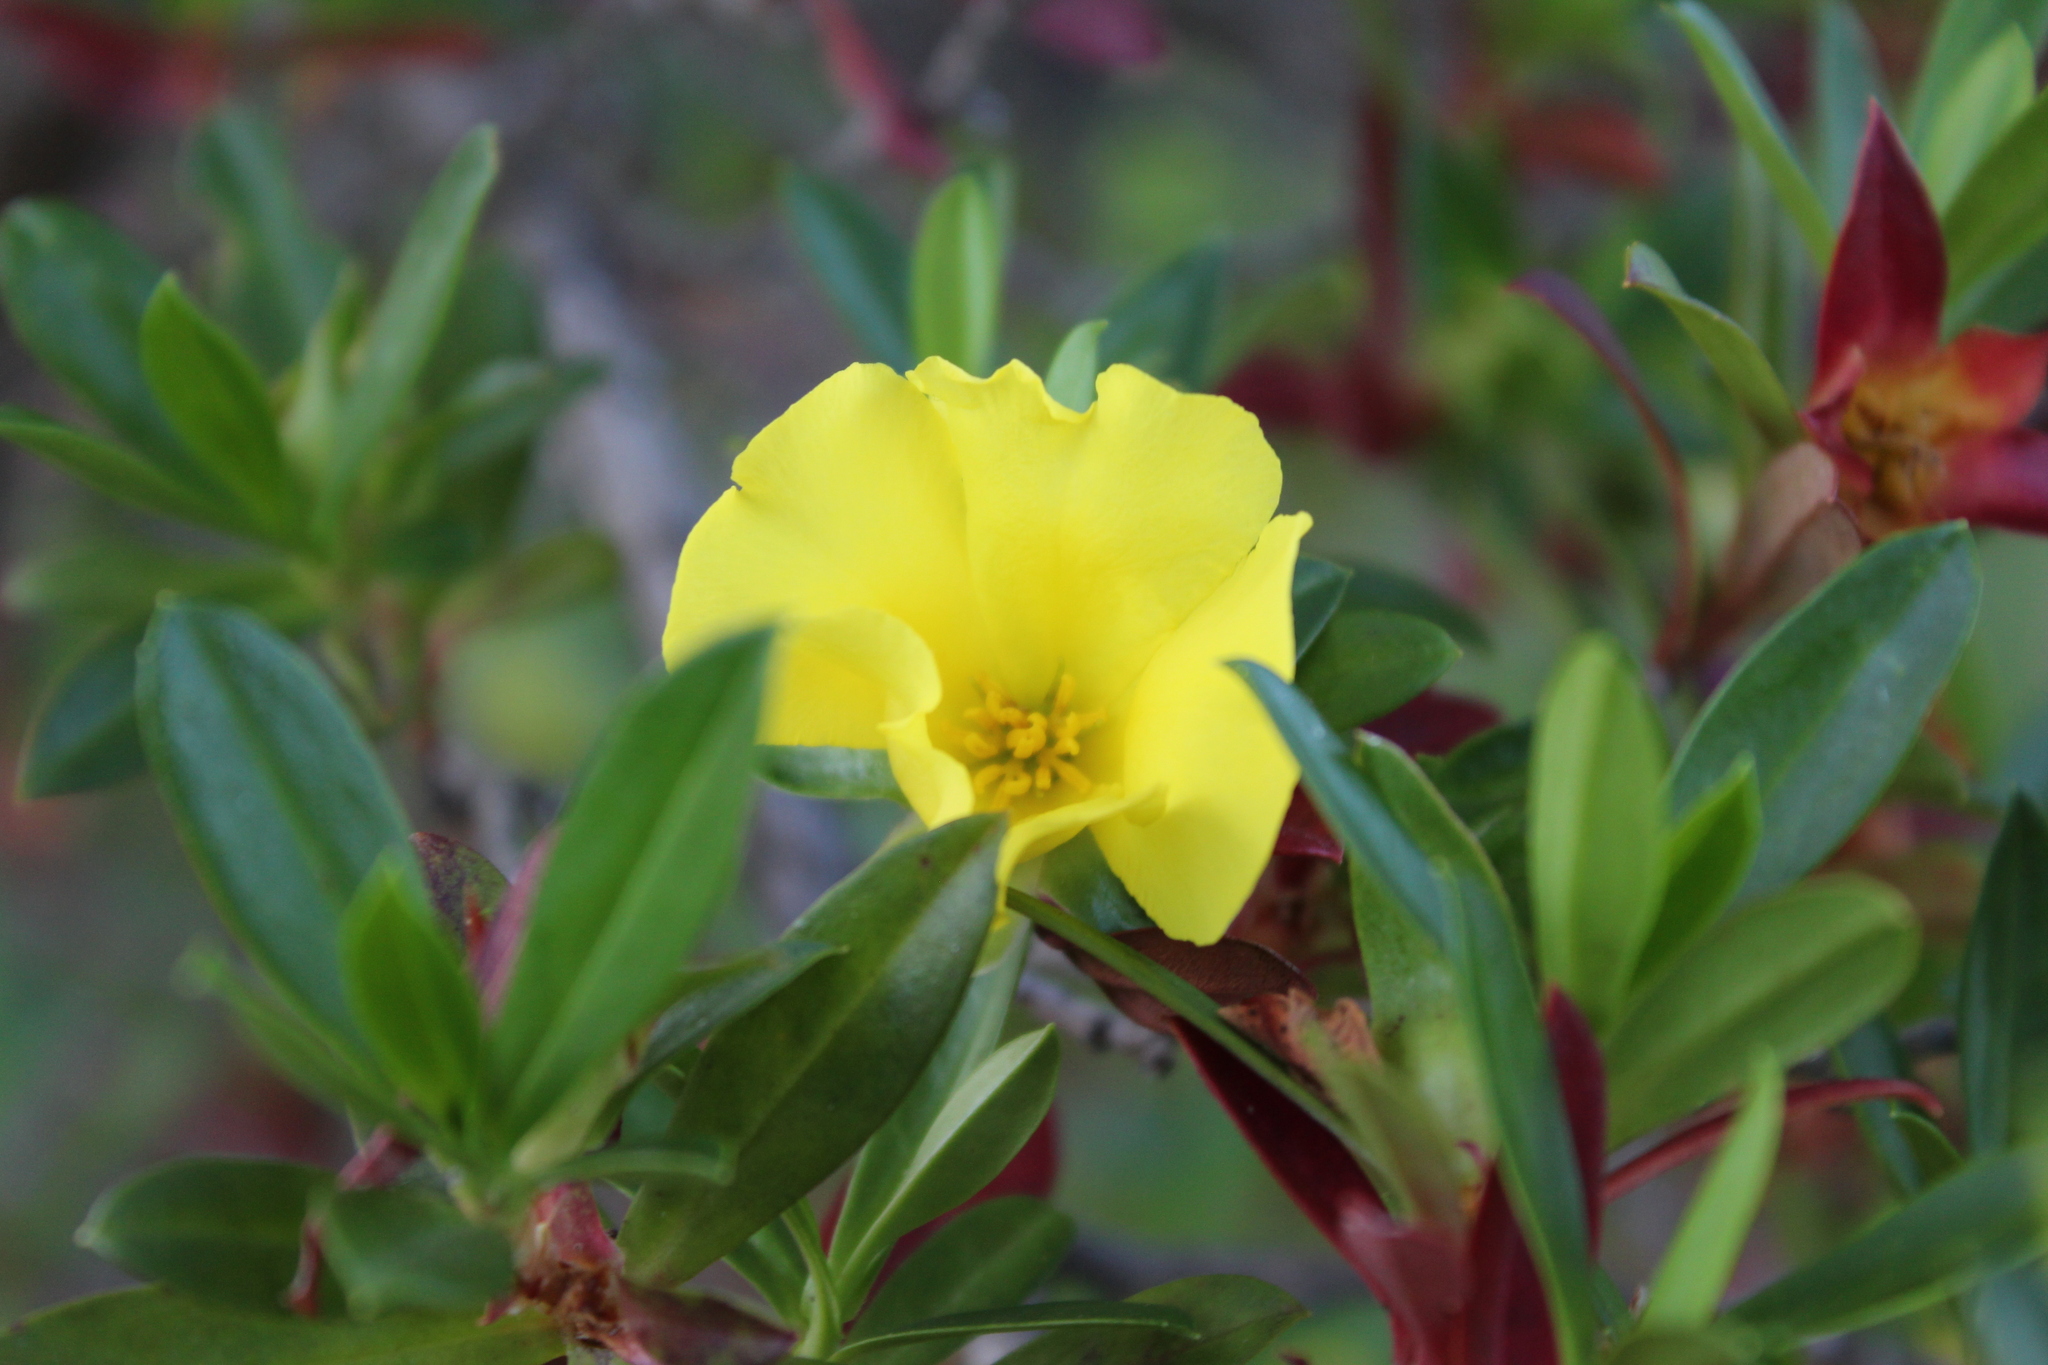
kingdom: Plantae
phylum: Tracheophyta
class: Magnoliopsida
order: Dilleniales
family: Dilleniaceae
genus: Hibbertia
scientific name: Hibbertia cuneiformis
